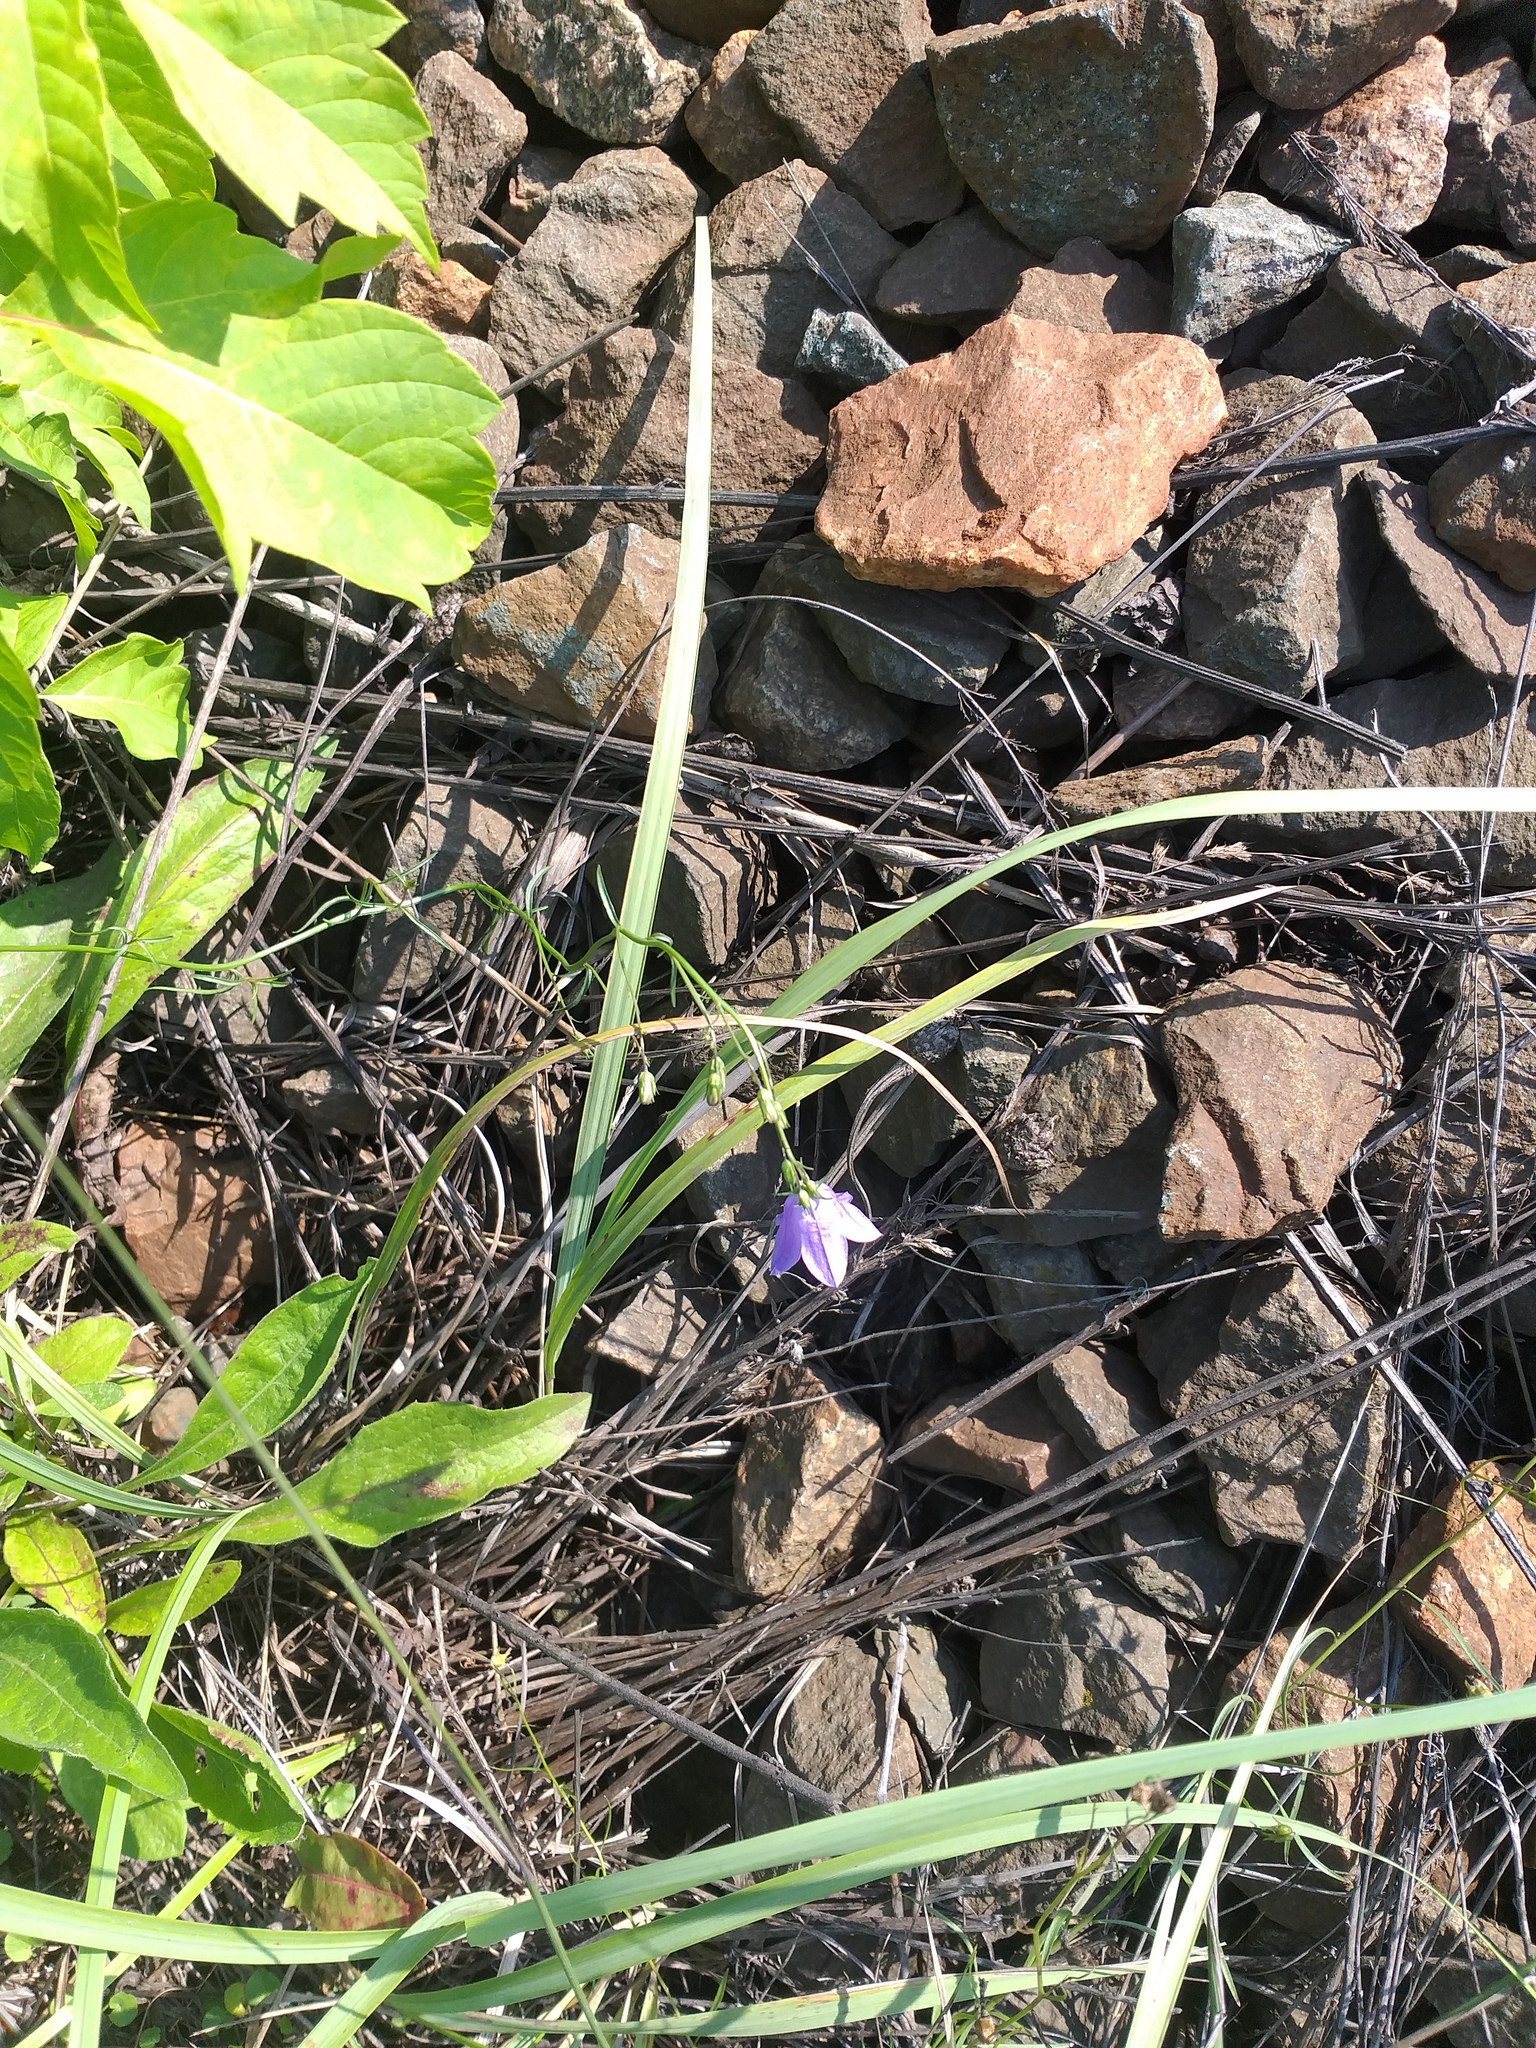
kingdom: Plantae
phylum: Tracheophyta
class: Magnoliopsida
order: Asterales
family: Campanulaceae
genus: Campanula
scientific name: Campanula rotundifolia
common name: Harebell
